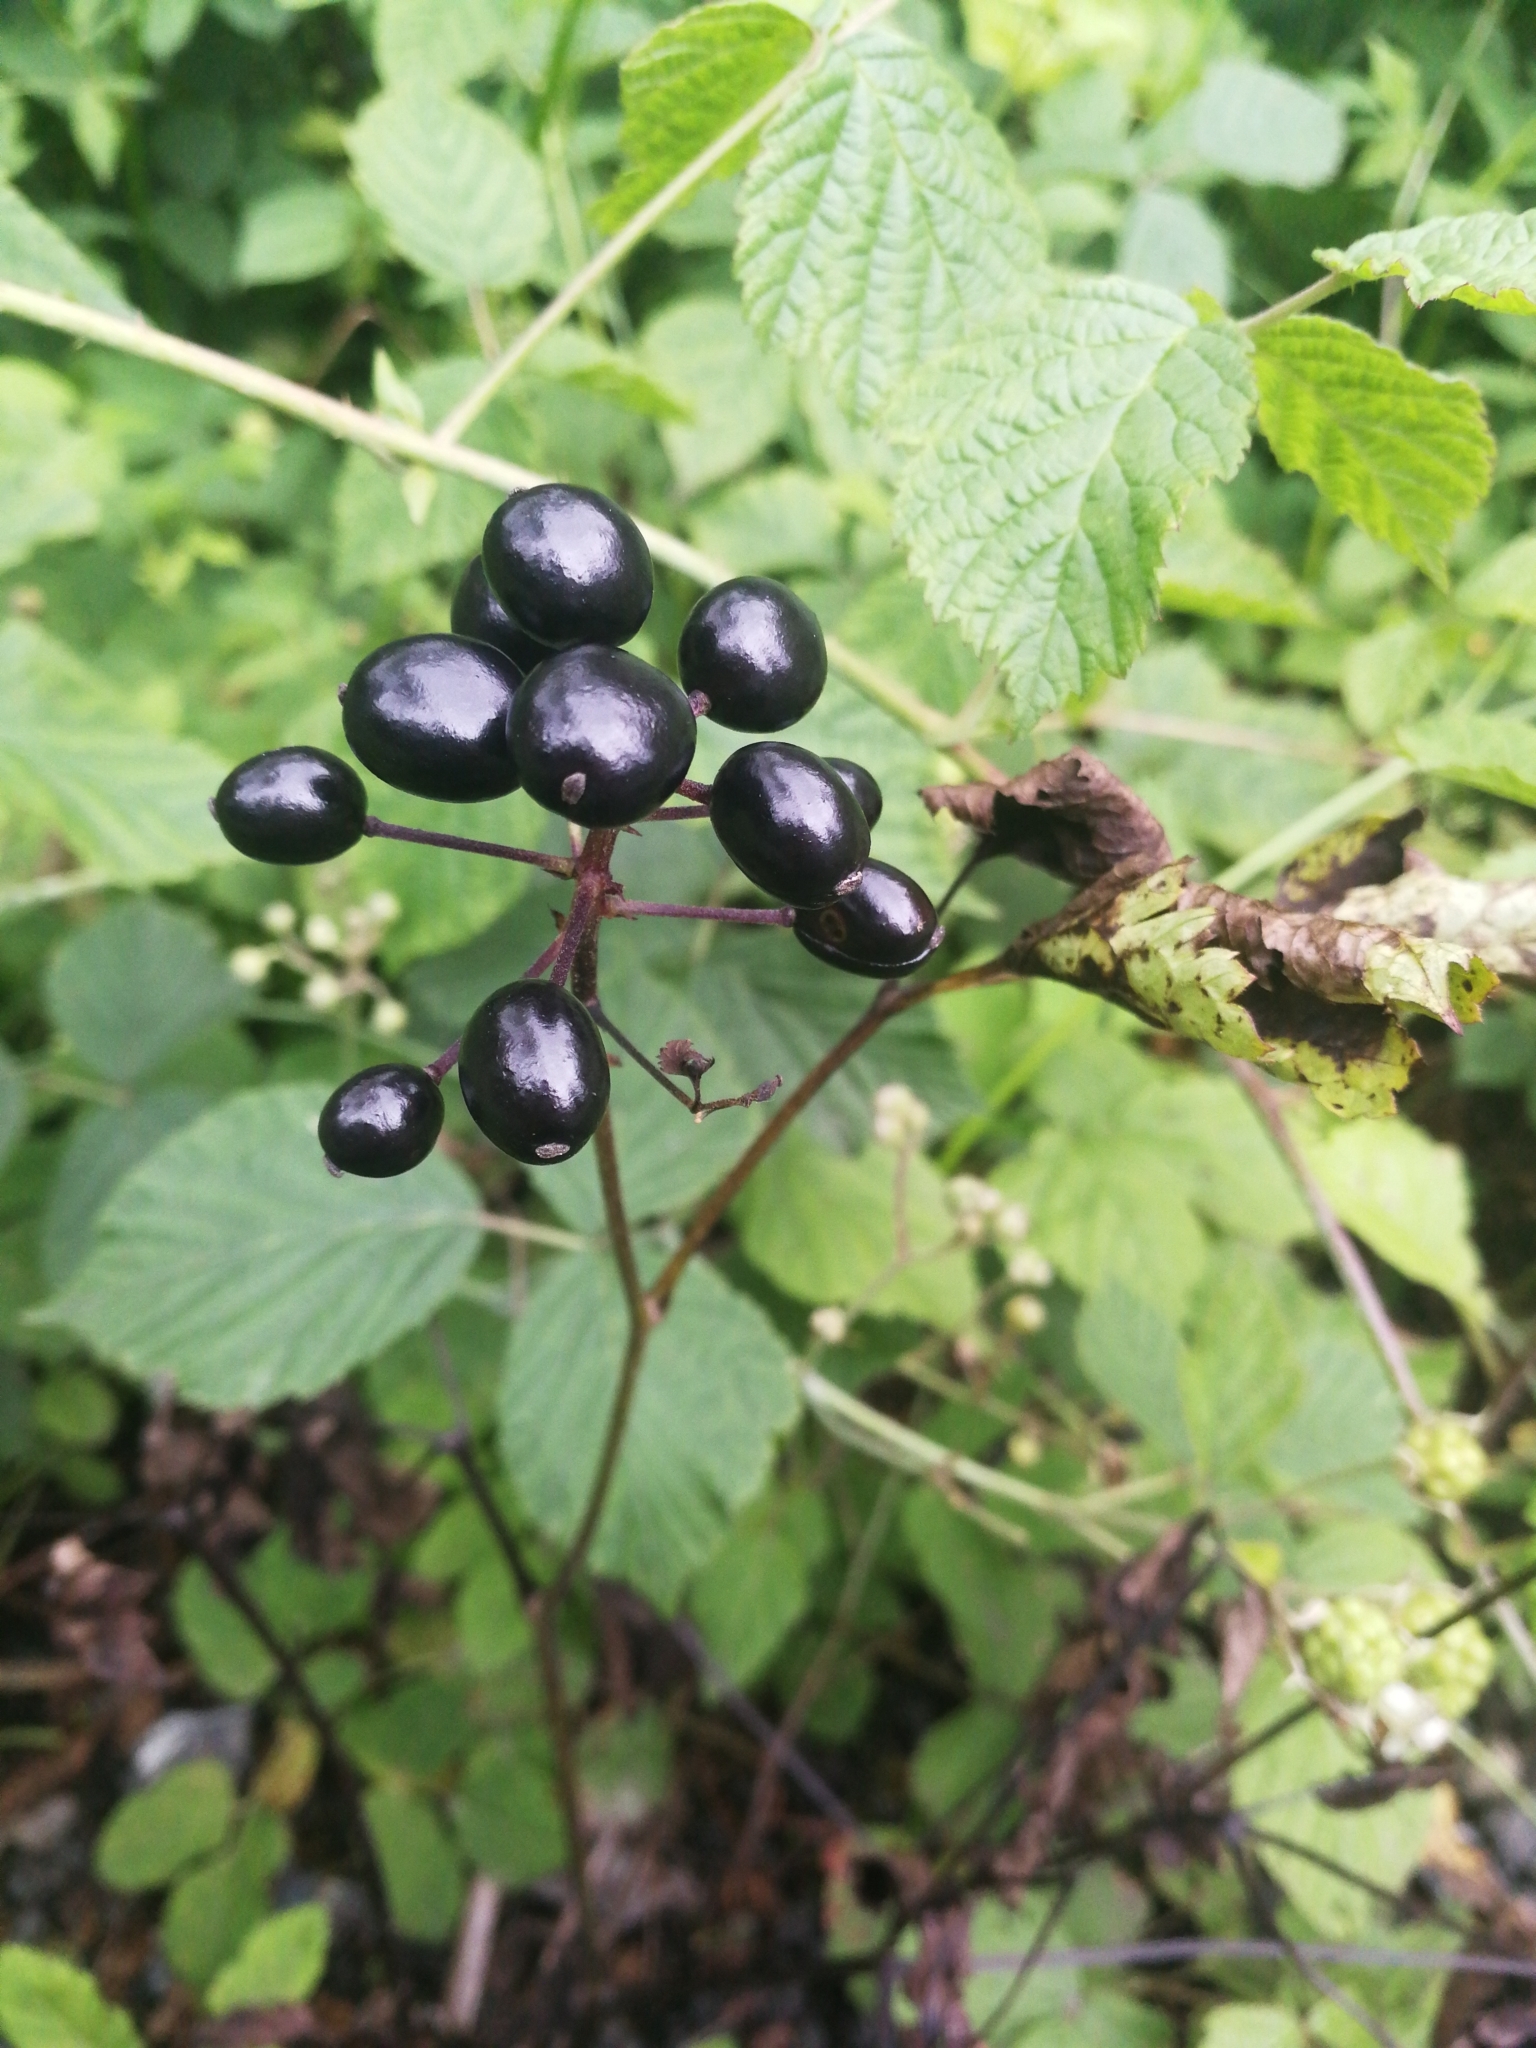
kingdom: Plantae
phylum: Tracheophyta
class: Magnoliopsida
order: Ranunculales
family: Ranunculaceae
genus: Actaea
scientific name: Actaea spicata
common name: Baneberry
